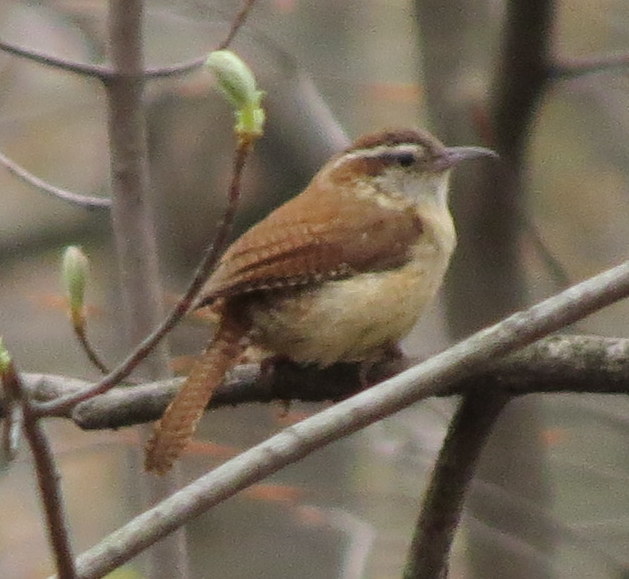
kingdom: Animalia
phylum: Chordata
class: Aves
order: Passeriformes
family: Troglodytidae
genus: Thryothorus
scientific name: Thryothorus ludovicianus
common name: Carolina wren
